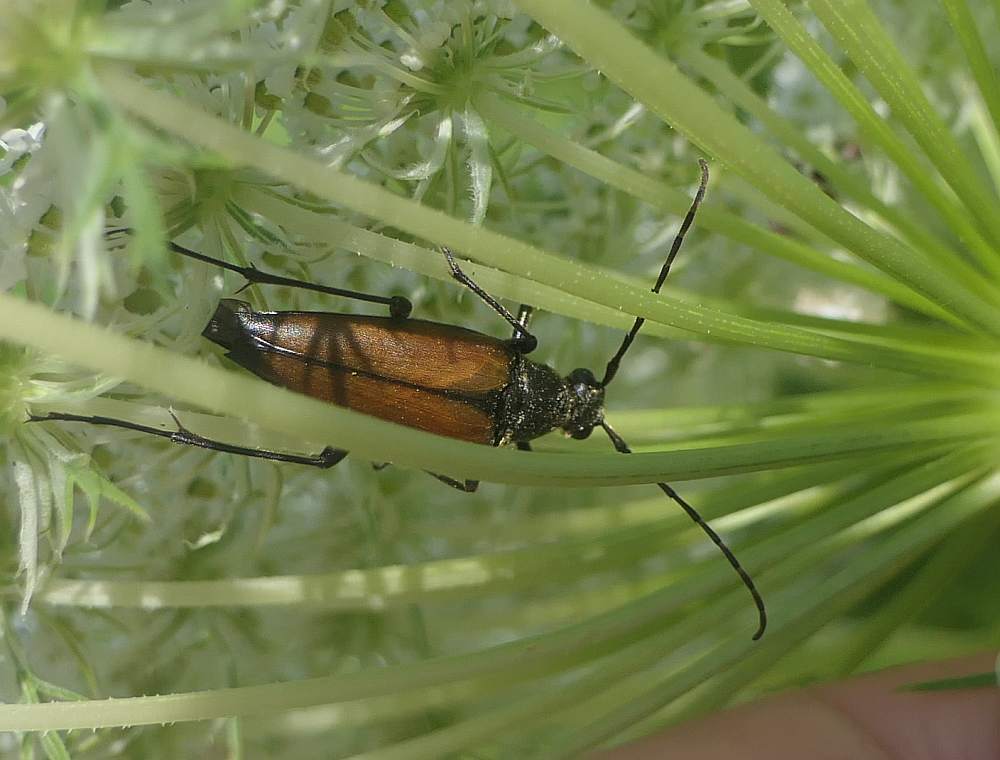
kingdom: Animalia
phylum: Arthropoda
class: Insecta
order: Coleoptera
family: Cerambycidae
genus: Etorofus
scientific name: Etorofus
